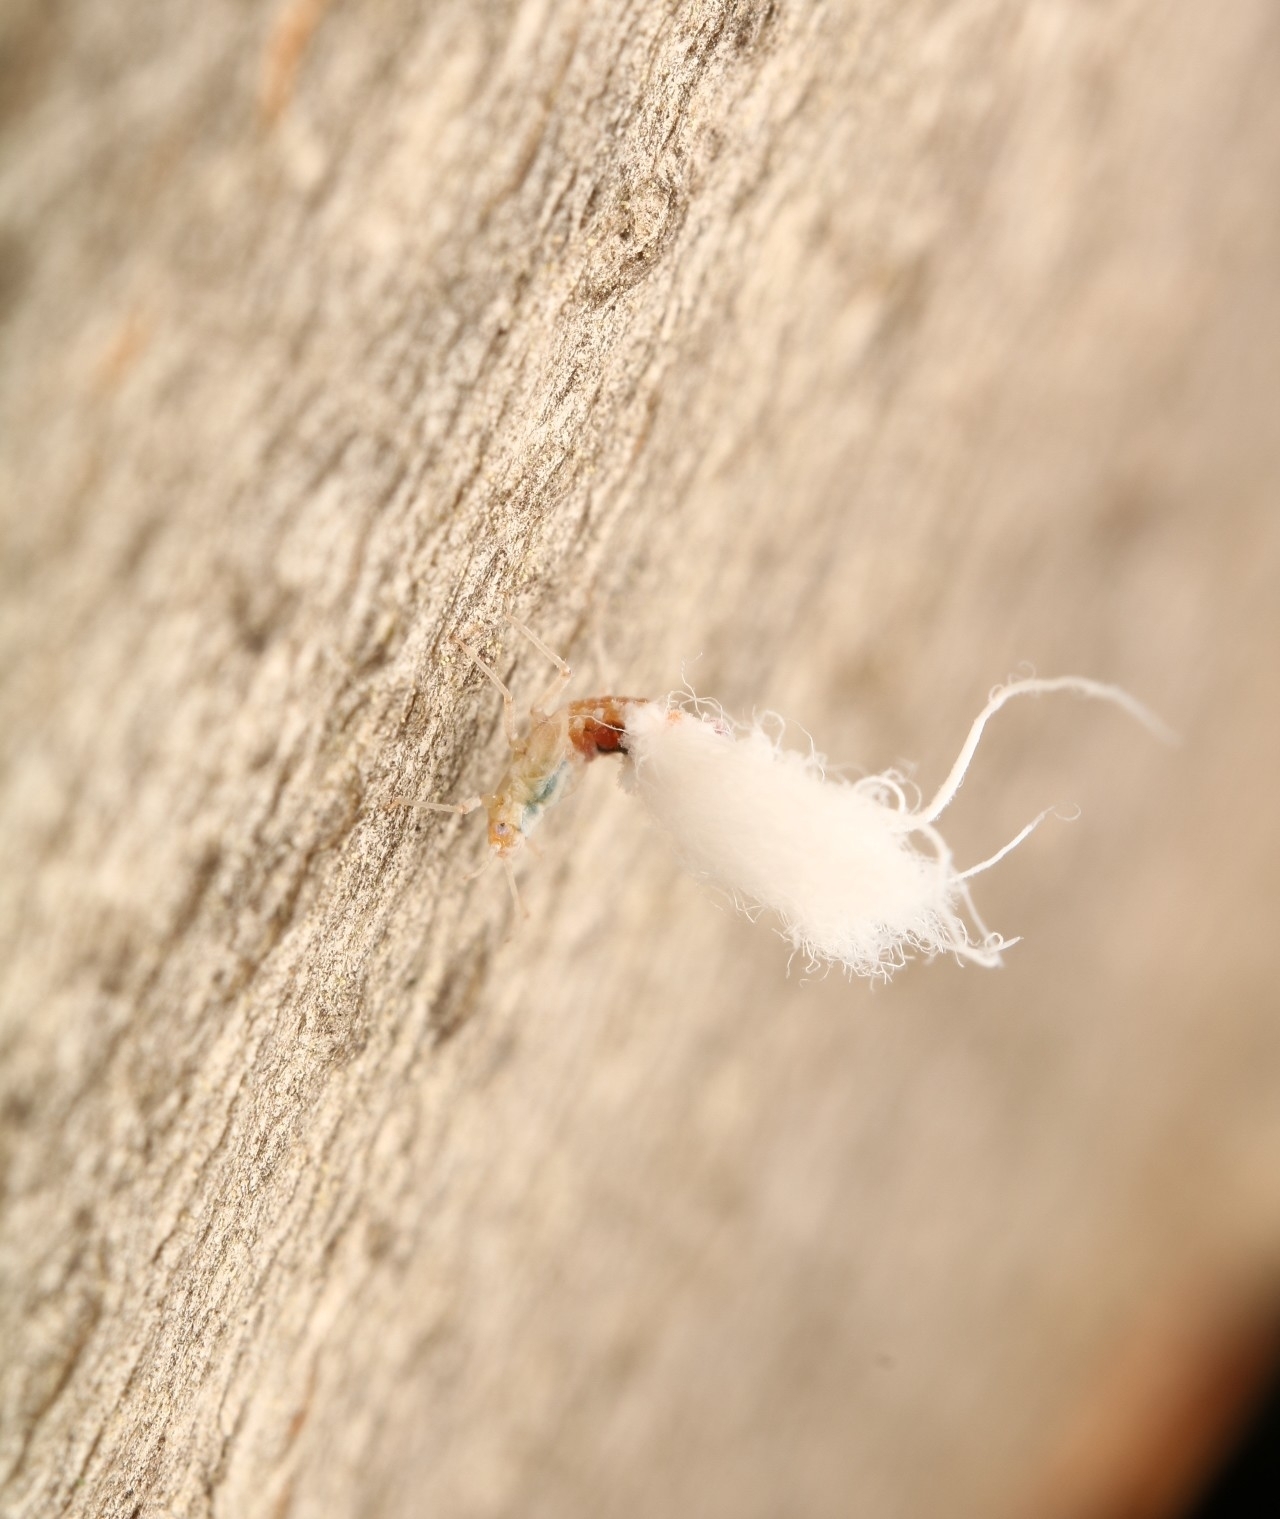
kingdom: Animalia
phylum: Arthropoda
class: Insecta
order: Hemiptera
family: Aphididae
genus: Grylloprociphilus
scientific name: Grylloprociphilus imbricator
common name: Beech blight aphid
